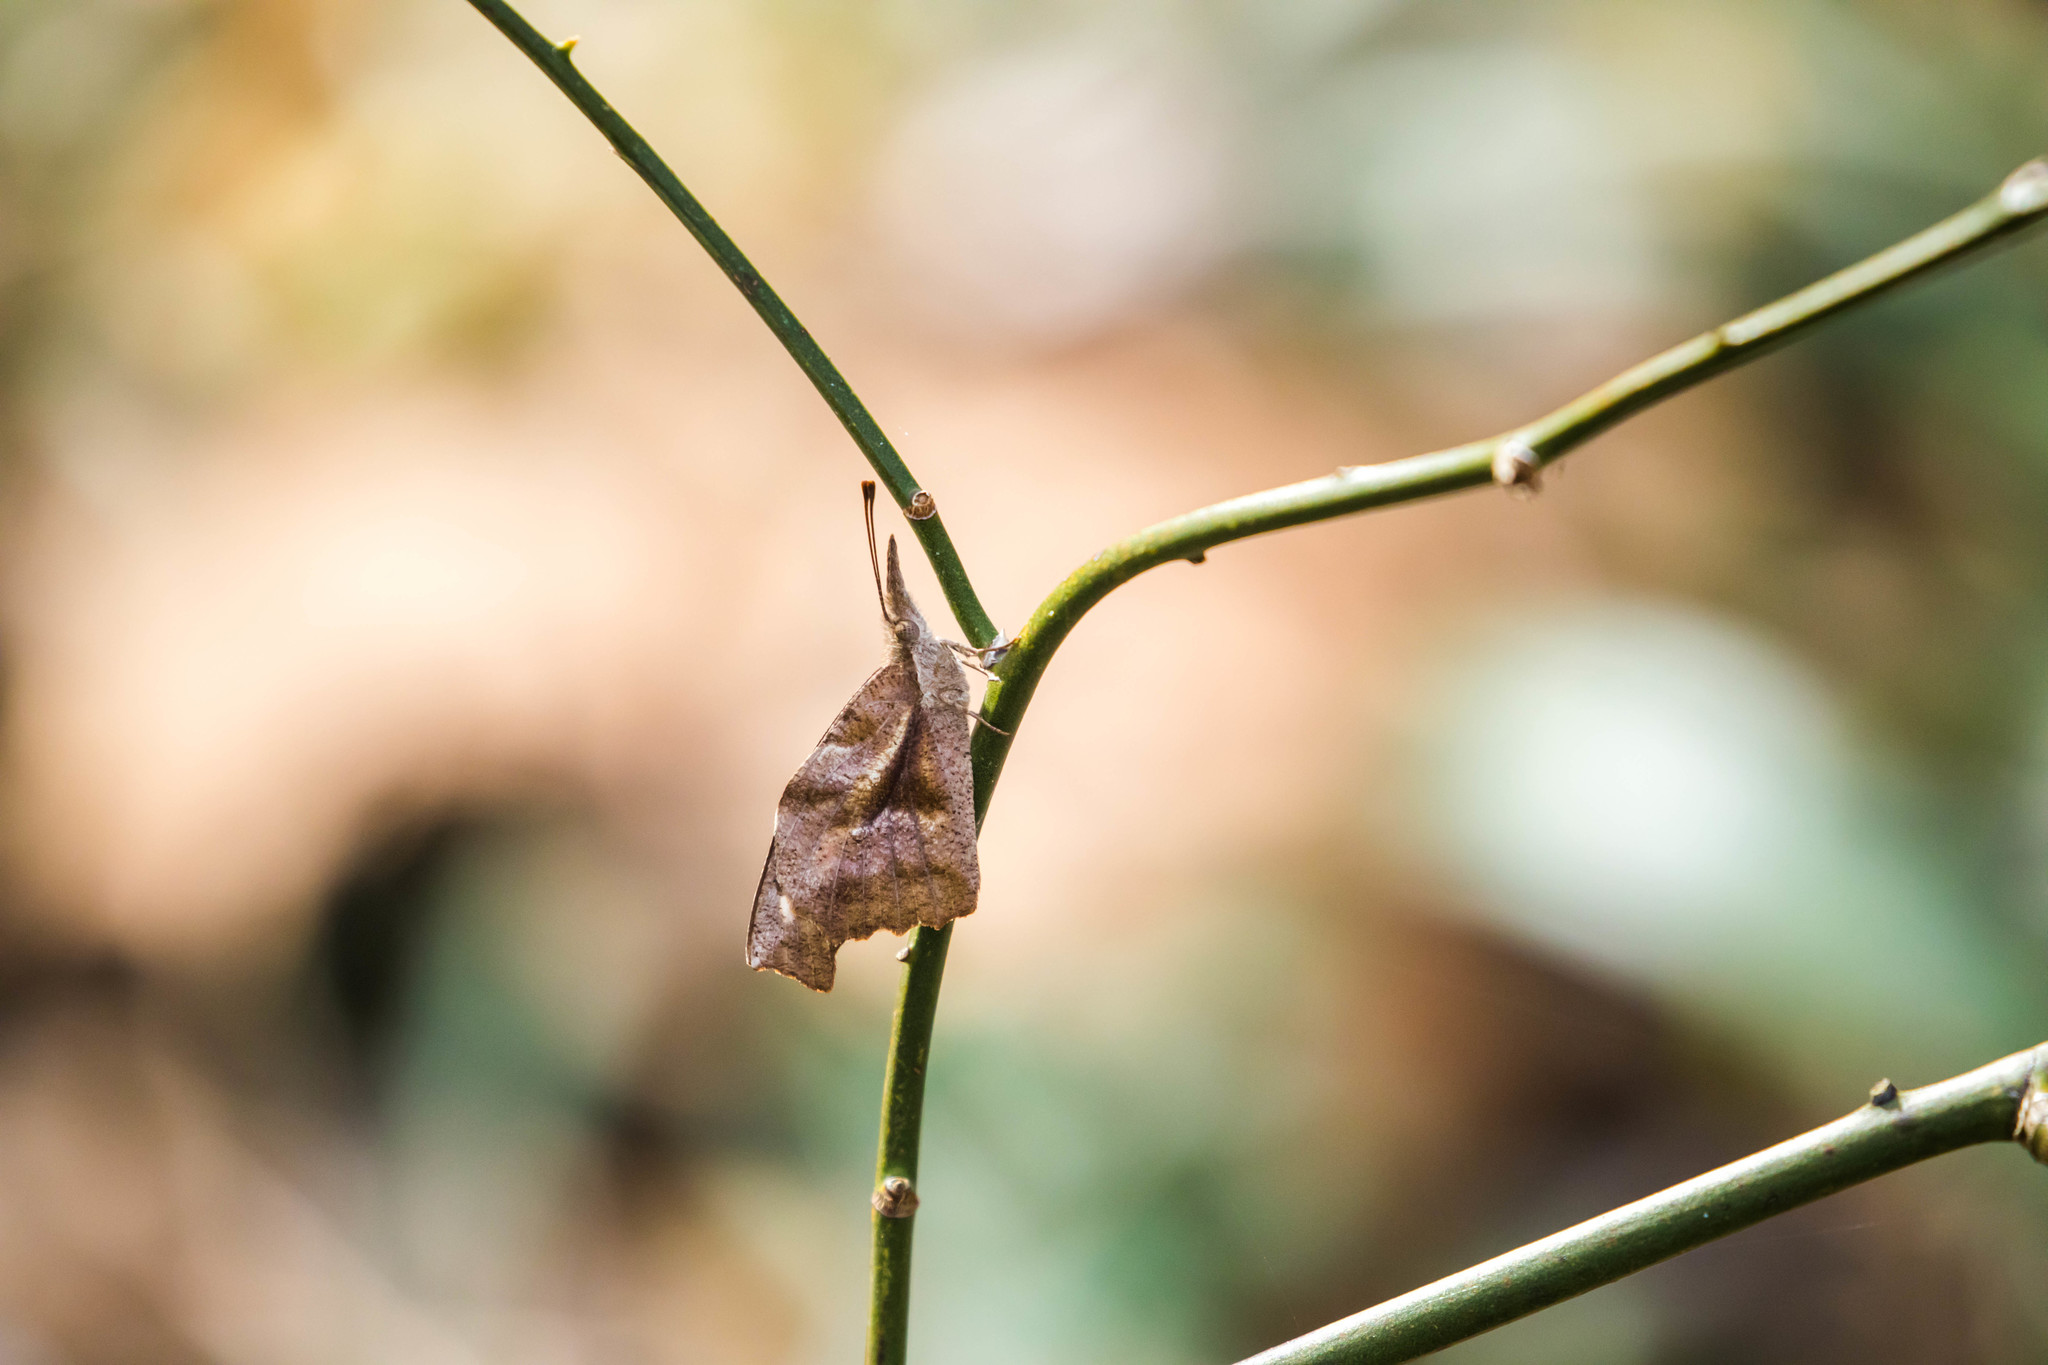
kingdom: Animalia
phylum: Arthropoda
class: Insecta
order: Lepidoptera
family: Nymphalidae
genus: Libytheana
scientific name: Libytheana carinenta
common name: American snout
